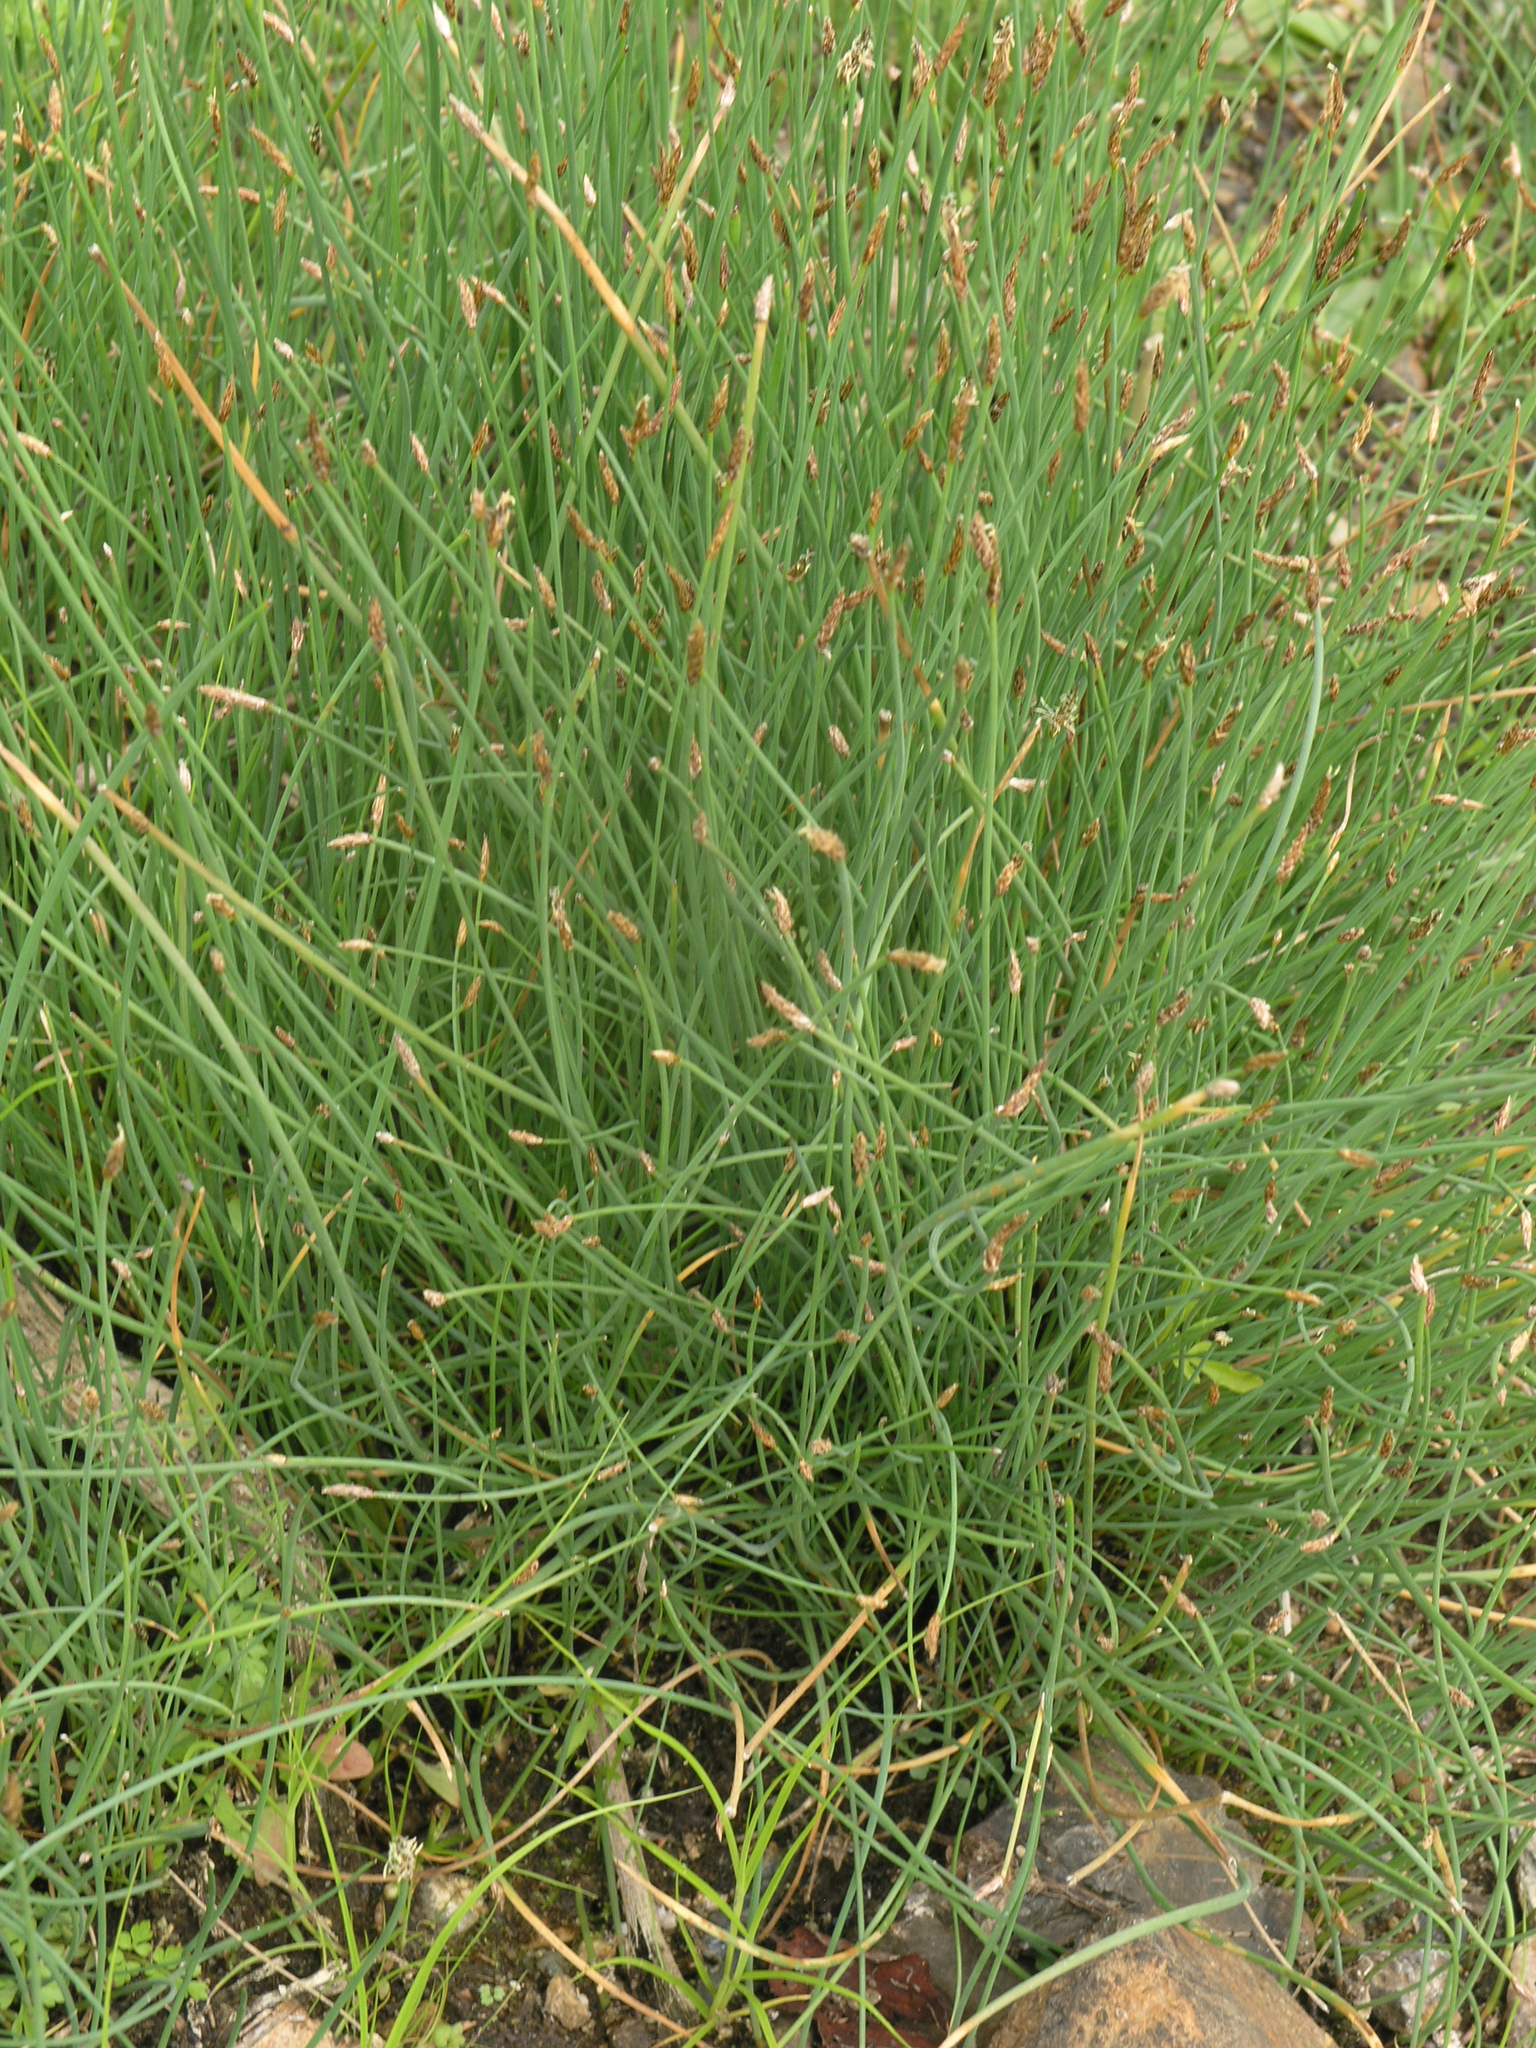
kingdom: Plantae
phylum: Tracheophyta
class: Liliopsida
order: Poales
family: Cyperaceae
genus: Eleocharis
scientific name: Eleocharis palustris
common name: Common spike-rush
